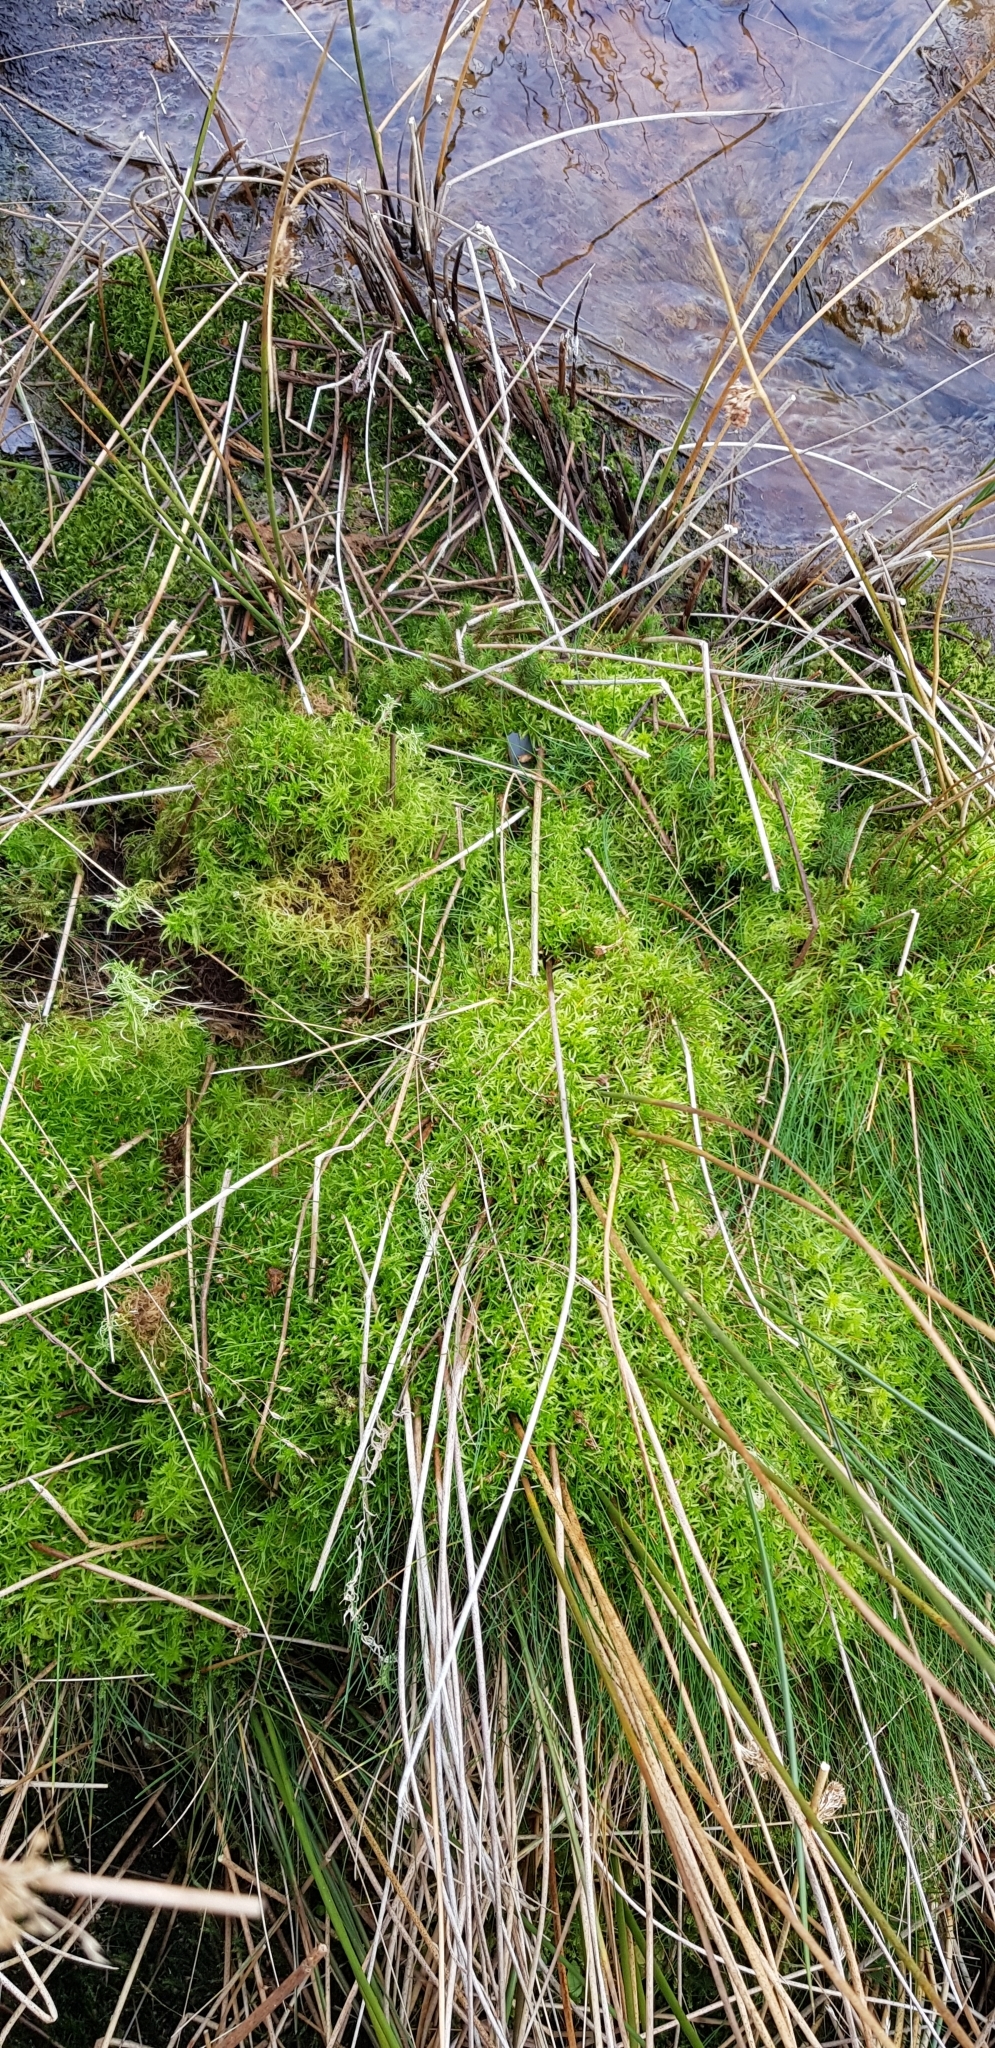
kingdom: Plantae
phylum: Bryophyta
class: Sphagnopsida
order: Sphagnales
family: Sphagnaceae
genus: Sphagnum
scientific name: Sphagnum fimbriatum
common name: Fringed peat moss
